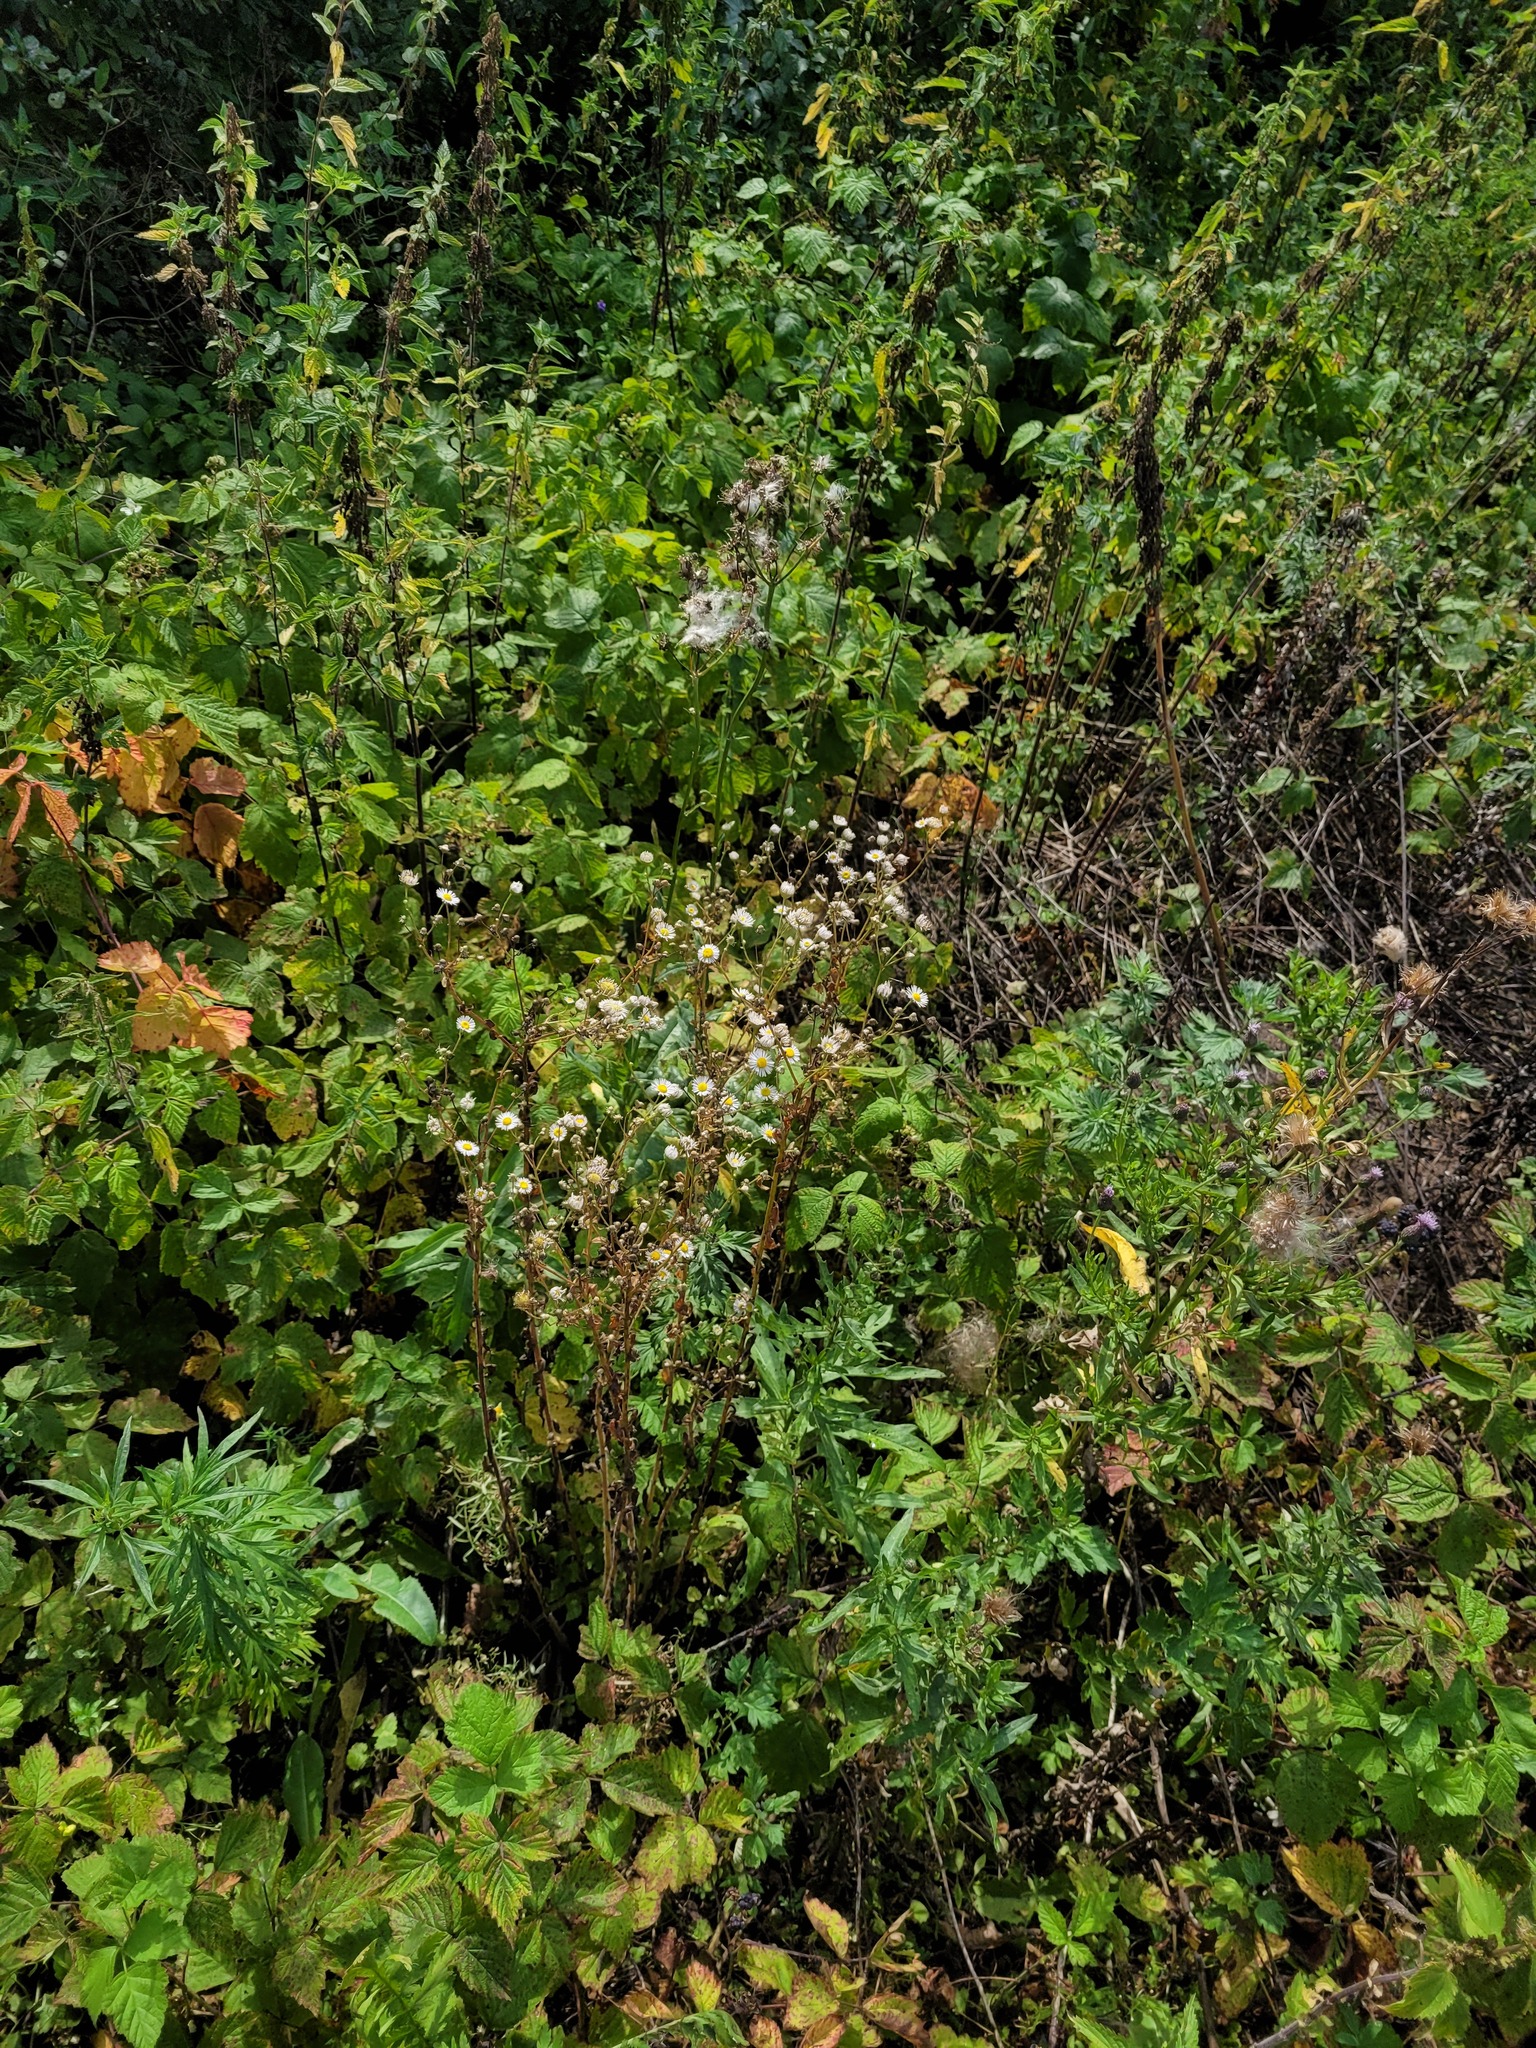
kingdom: Plantae
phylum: Tracheophyta
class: Magnoliopsida
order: Asterales
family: Asteraceae
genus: Erigeron
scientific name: Erigeron annuus
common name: Tall fleabane
